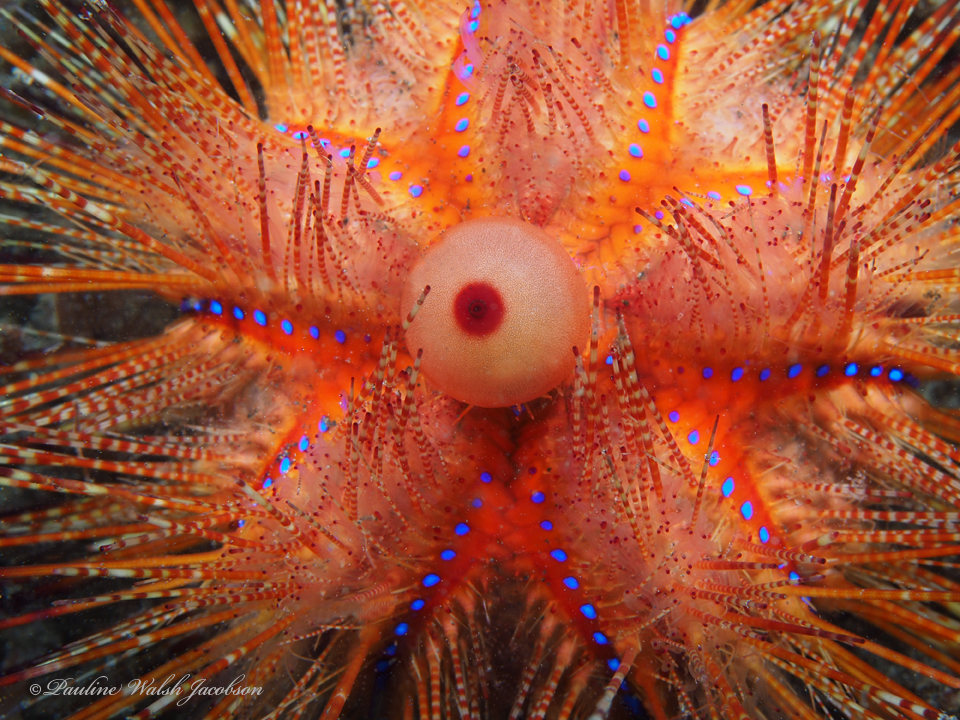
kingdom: Animalia
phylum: Echinodermata
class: Echinoidea
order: Diadematoida
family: Diadematidae
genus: Astropyga
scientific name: Astropyga radiata
